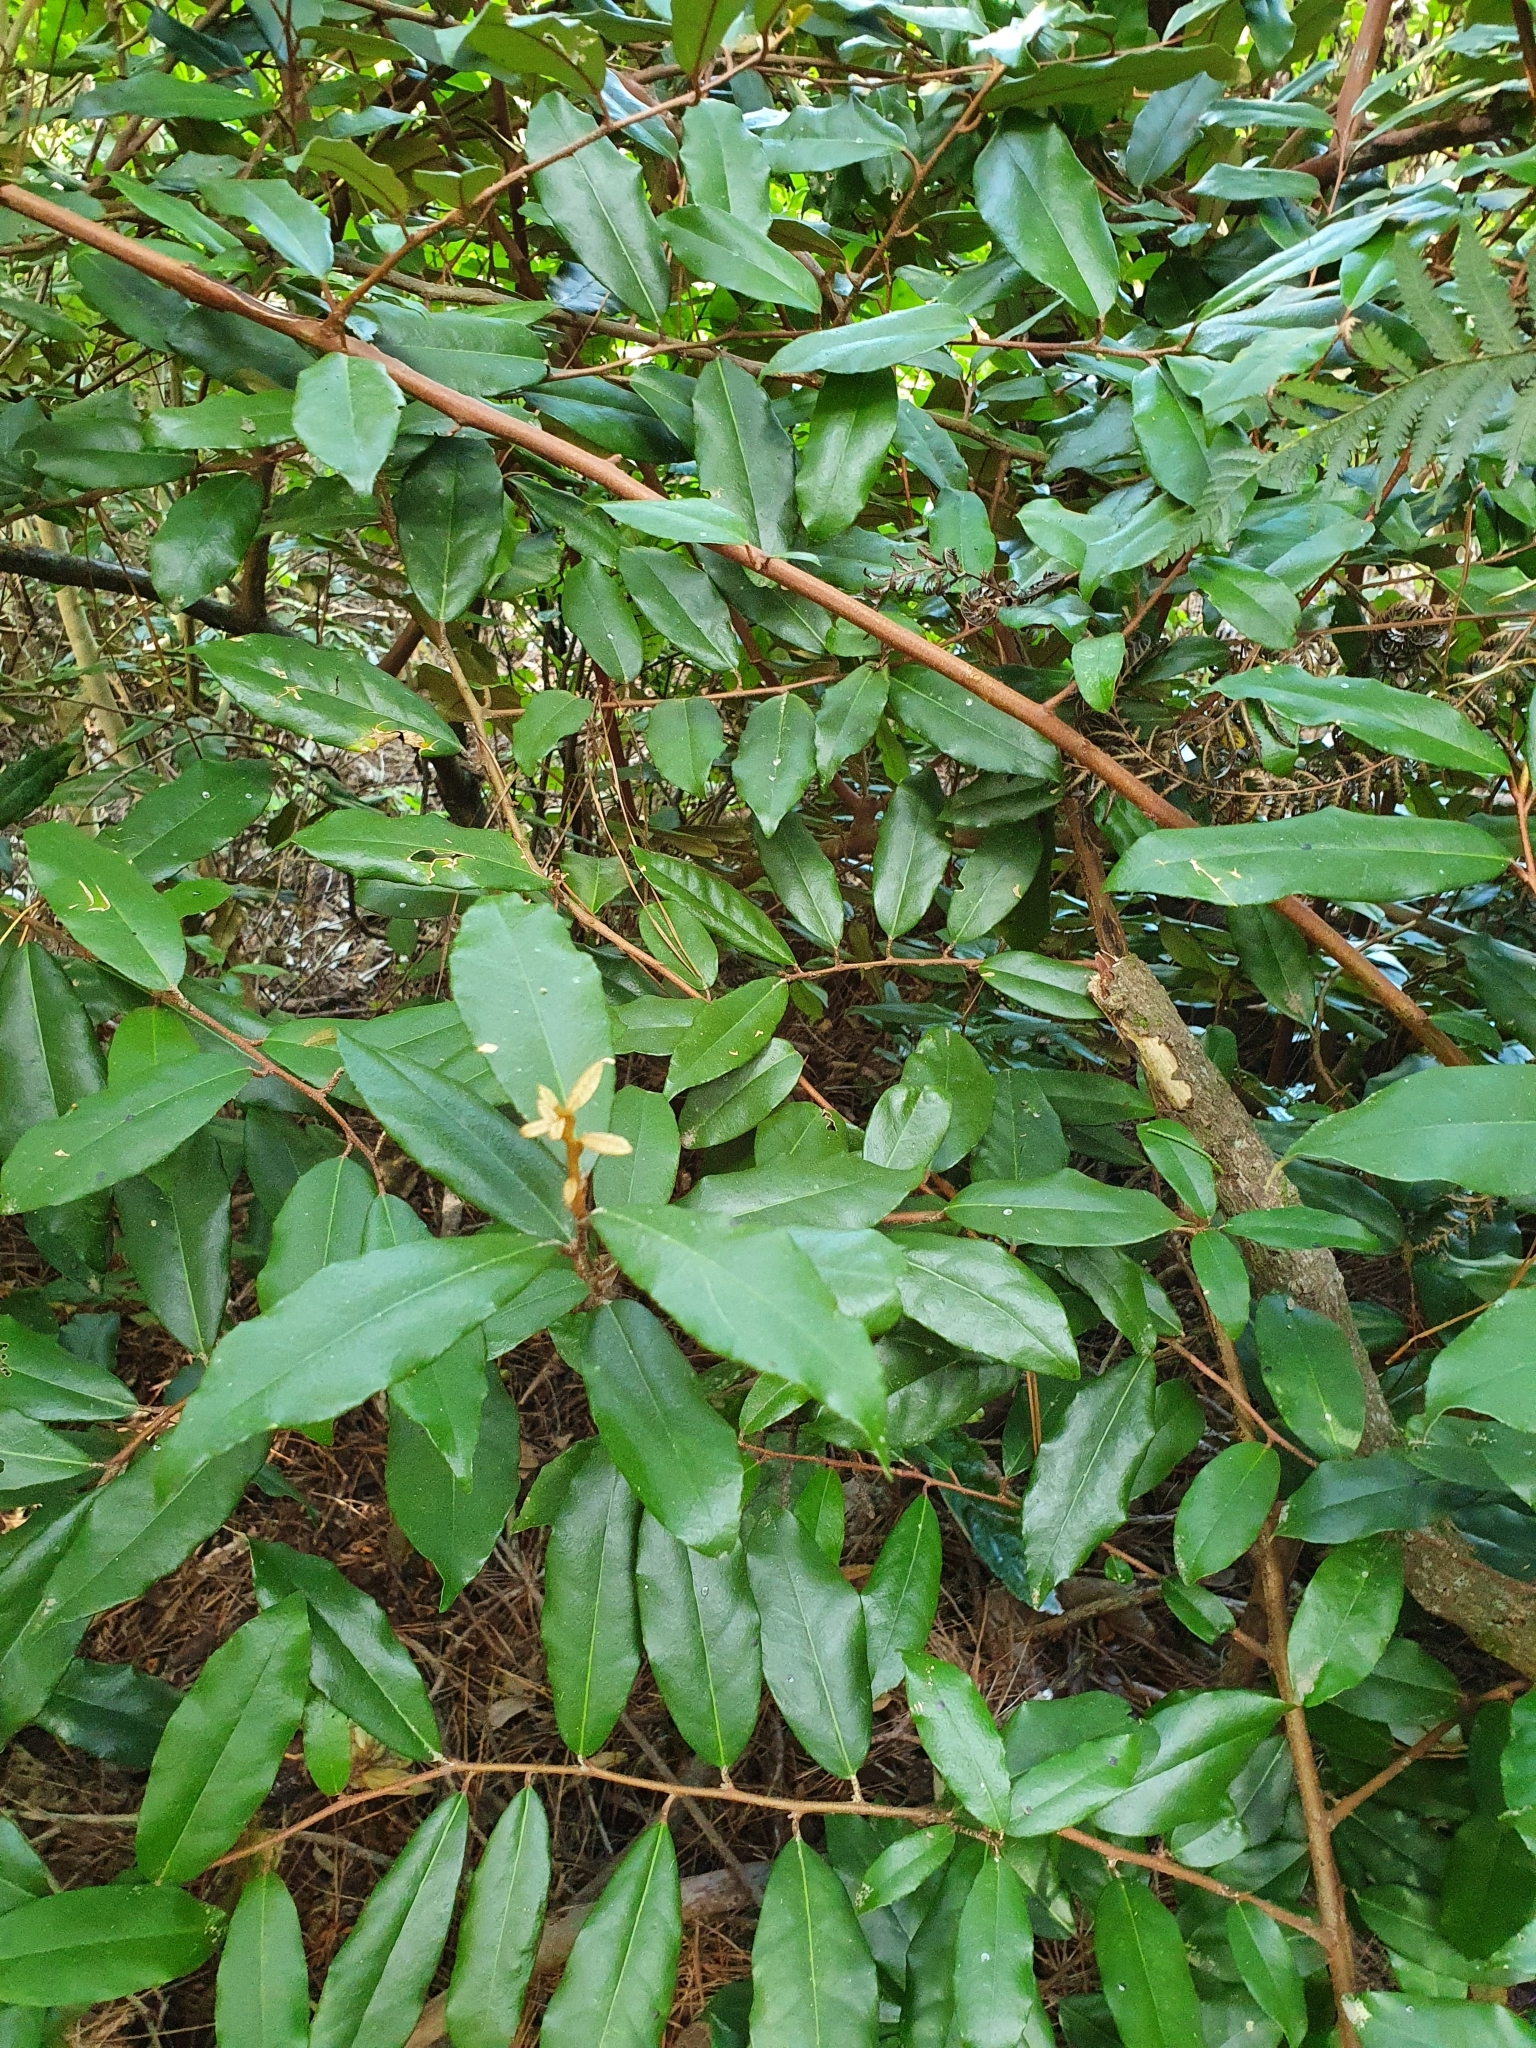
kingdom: Plantae
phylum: Tracheophyta
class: Magnoliopsida
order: Rosales
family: Elaeagnaceae
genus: Elaeagnus
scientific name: Elaeagnus reflexa
